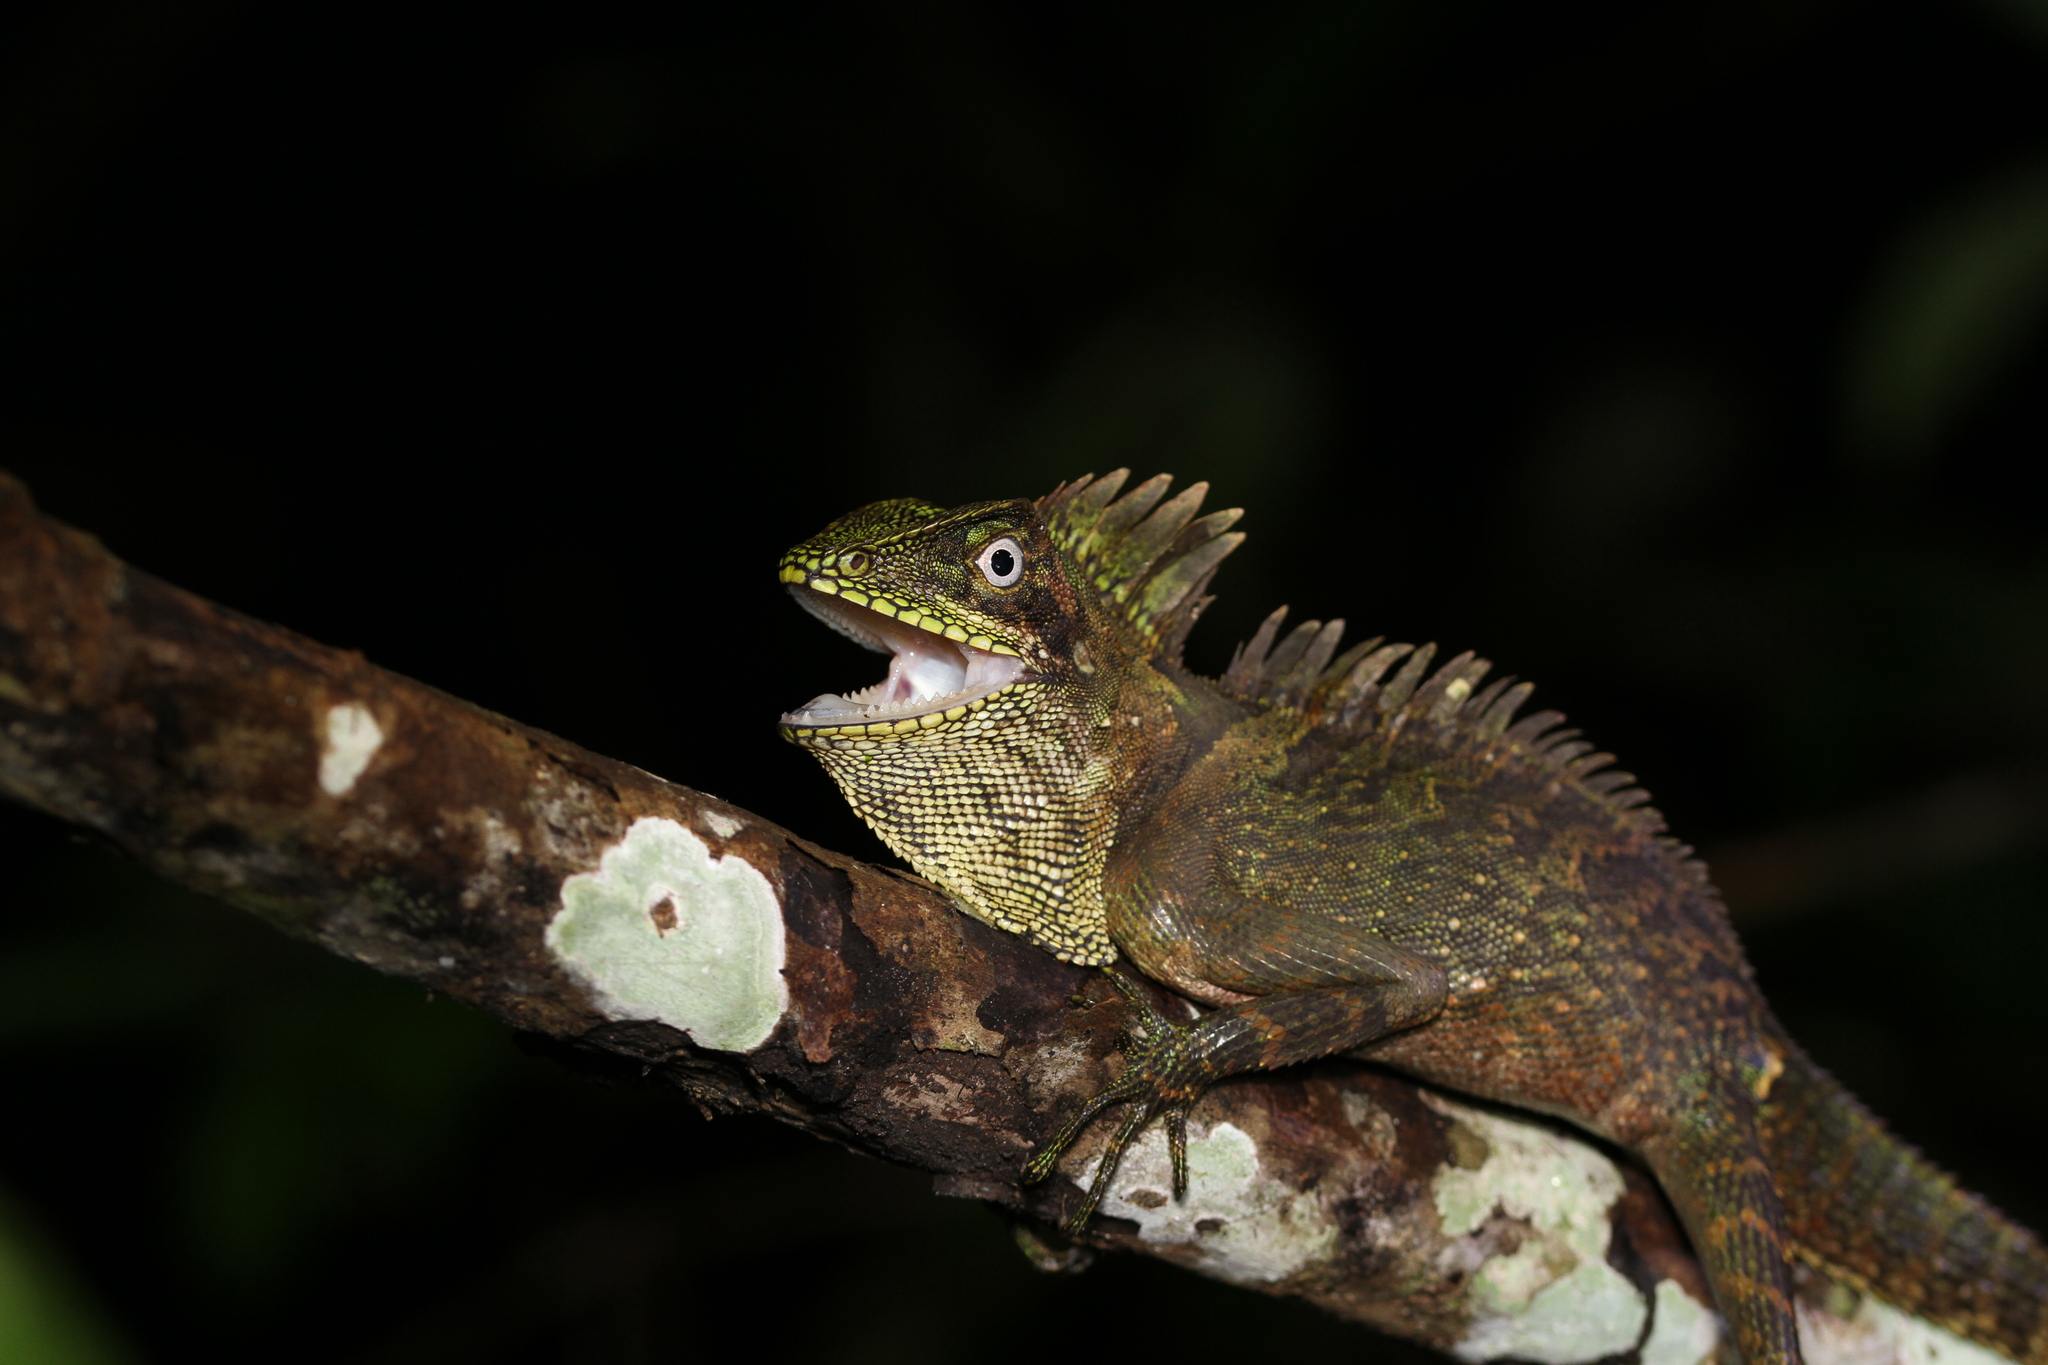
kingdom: Animalia
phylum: Chordata
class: Squamata
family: Agamidae
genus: Gonocephalus
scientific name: Gonocephalus klossi
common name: Kloss' forest dragon
